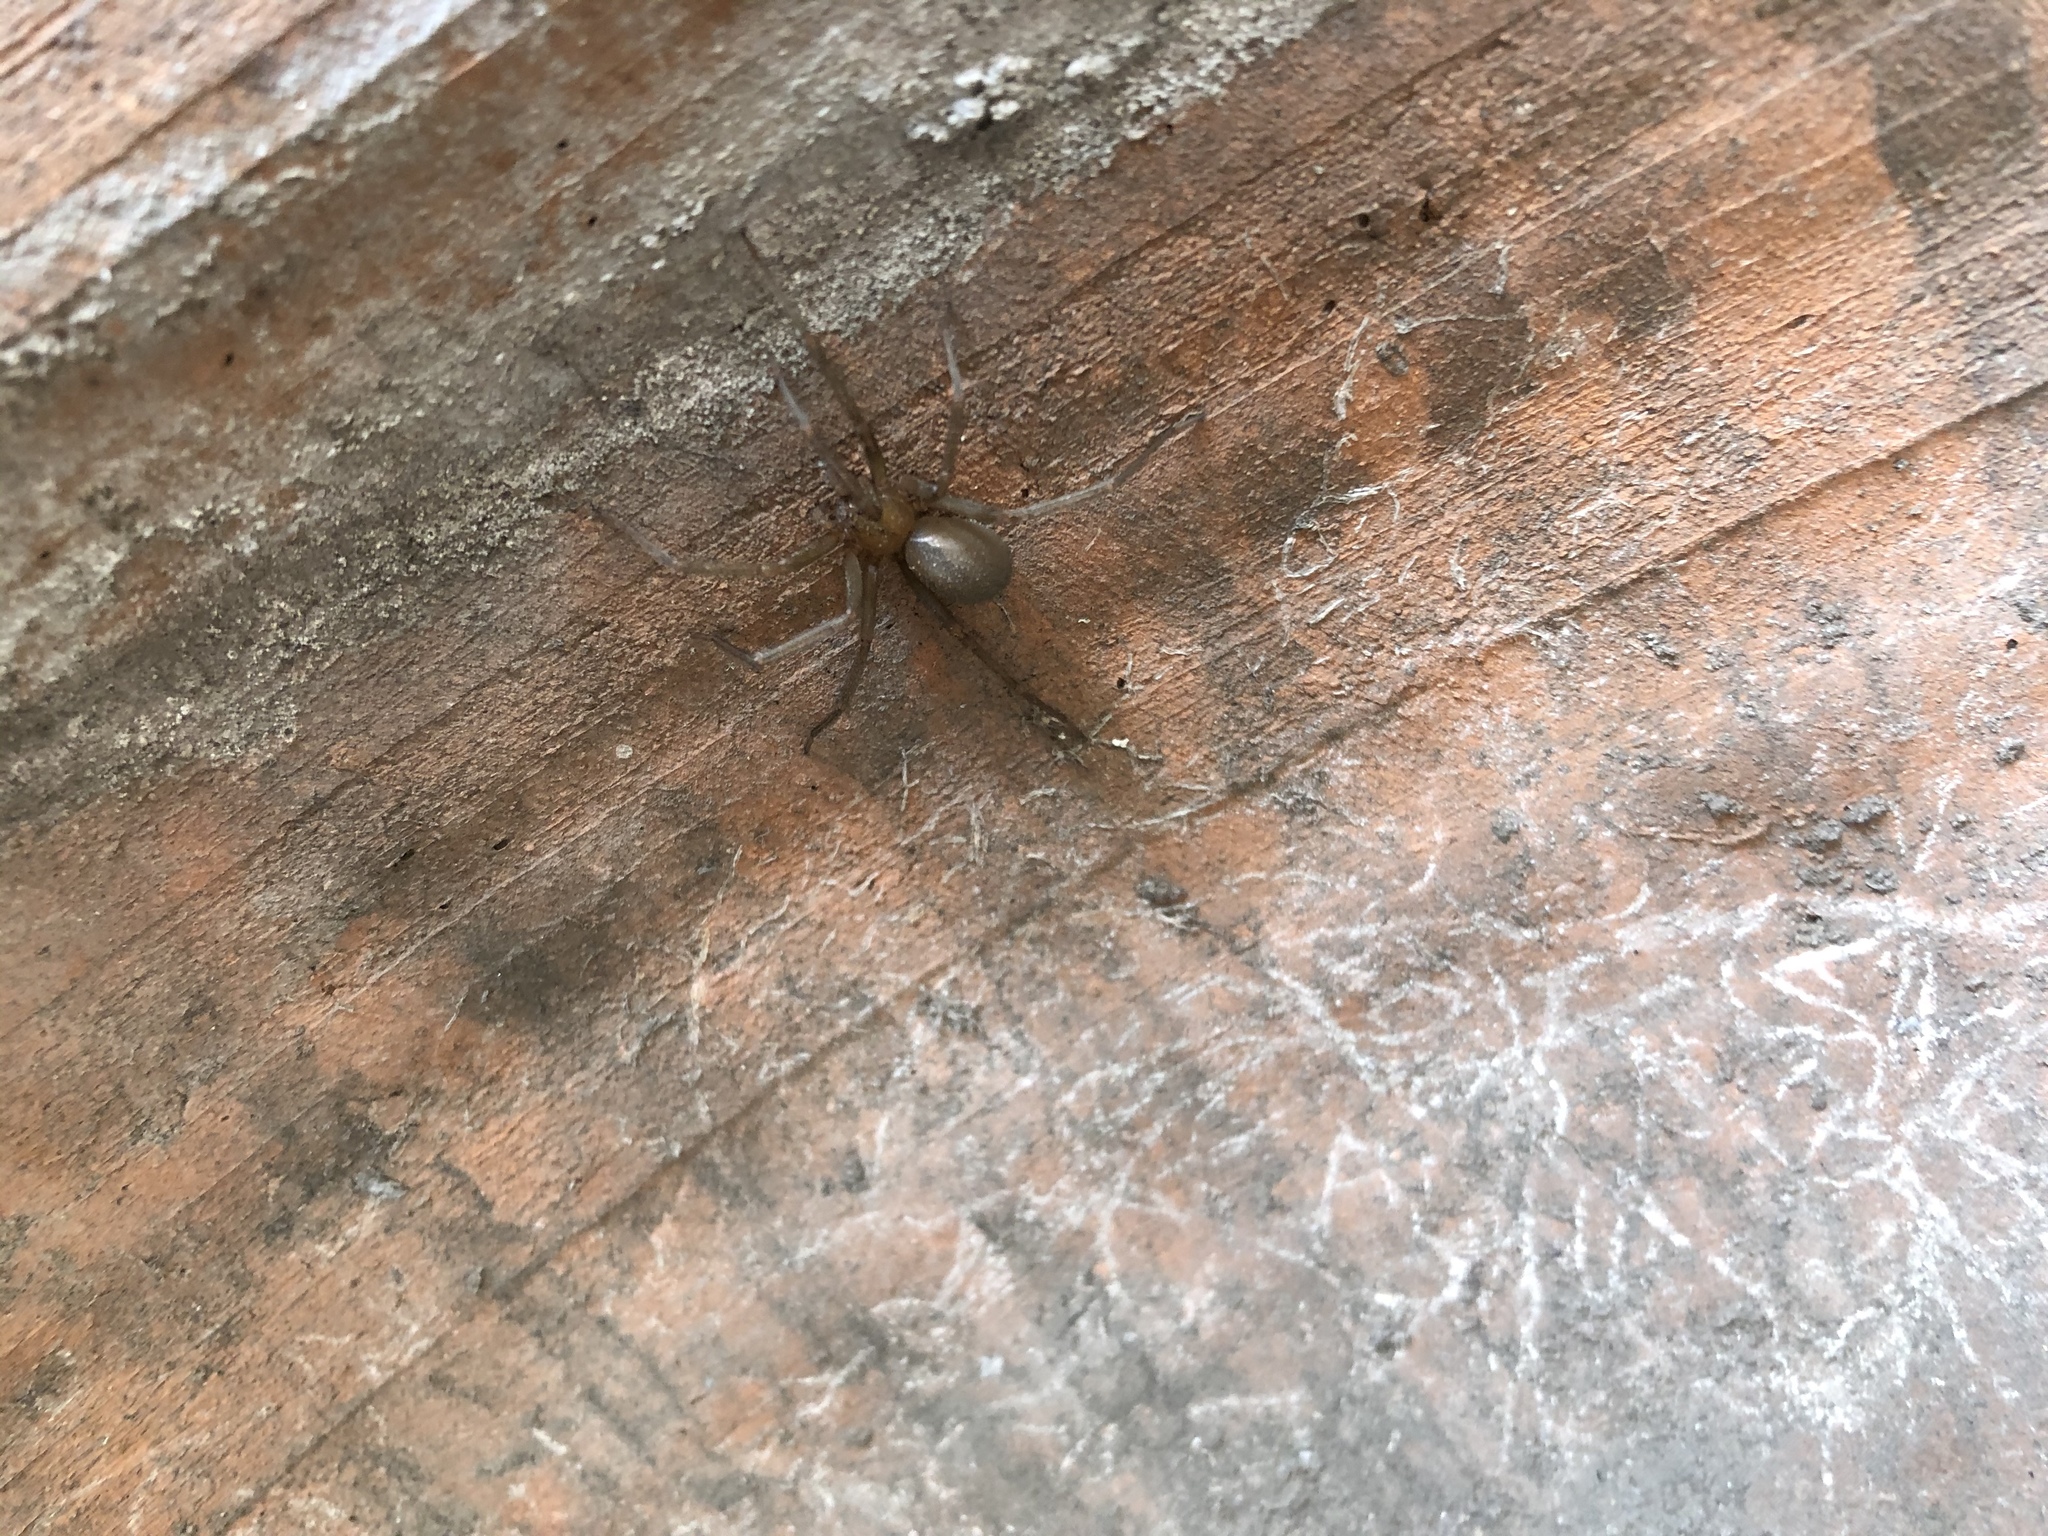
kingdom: Animalia
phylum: Arthropoda
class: Arachnida
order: Araneae
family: Sicariidae
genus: Loxosceles
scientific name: Loxosceles laeta
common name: Chilean recluse spider
